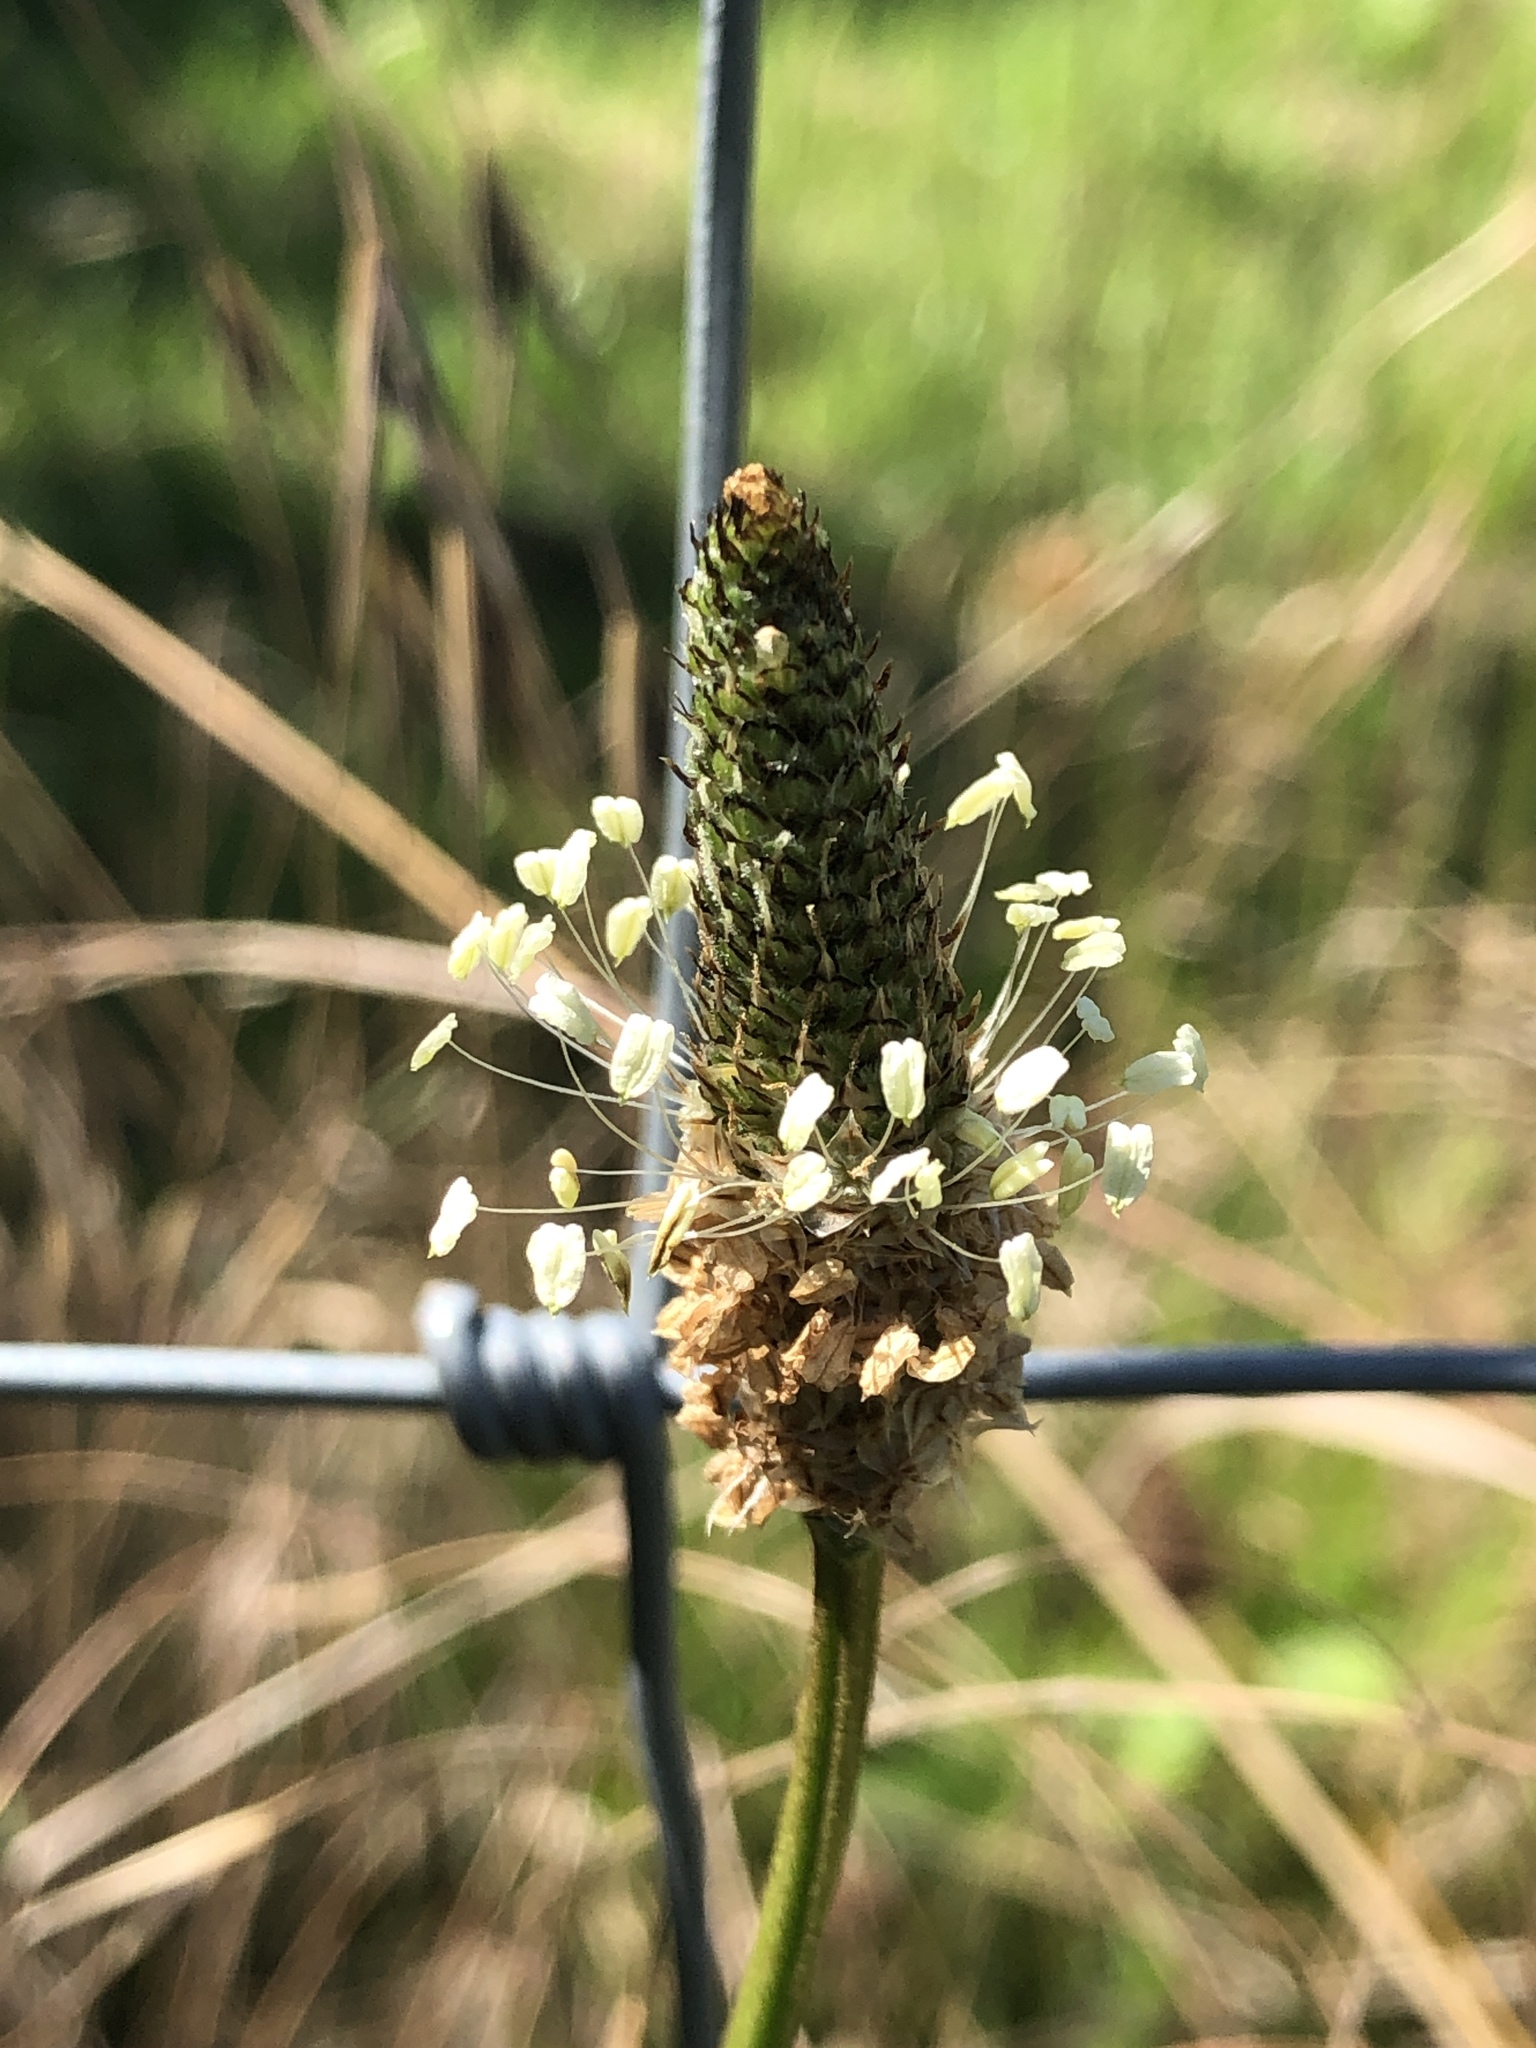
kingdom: Plantae
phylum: Tracheophyta
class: Magnoliopsida
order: Lamiales
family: Plantaginaceae
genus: Plantago
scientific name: Plantago lanceolata
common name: Ribwort plantain
